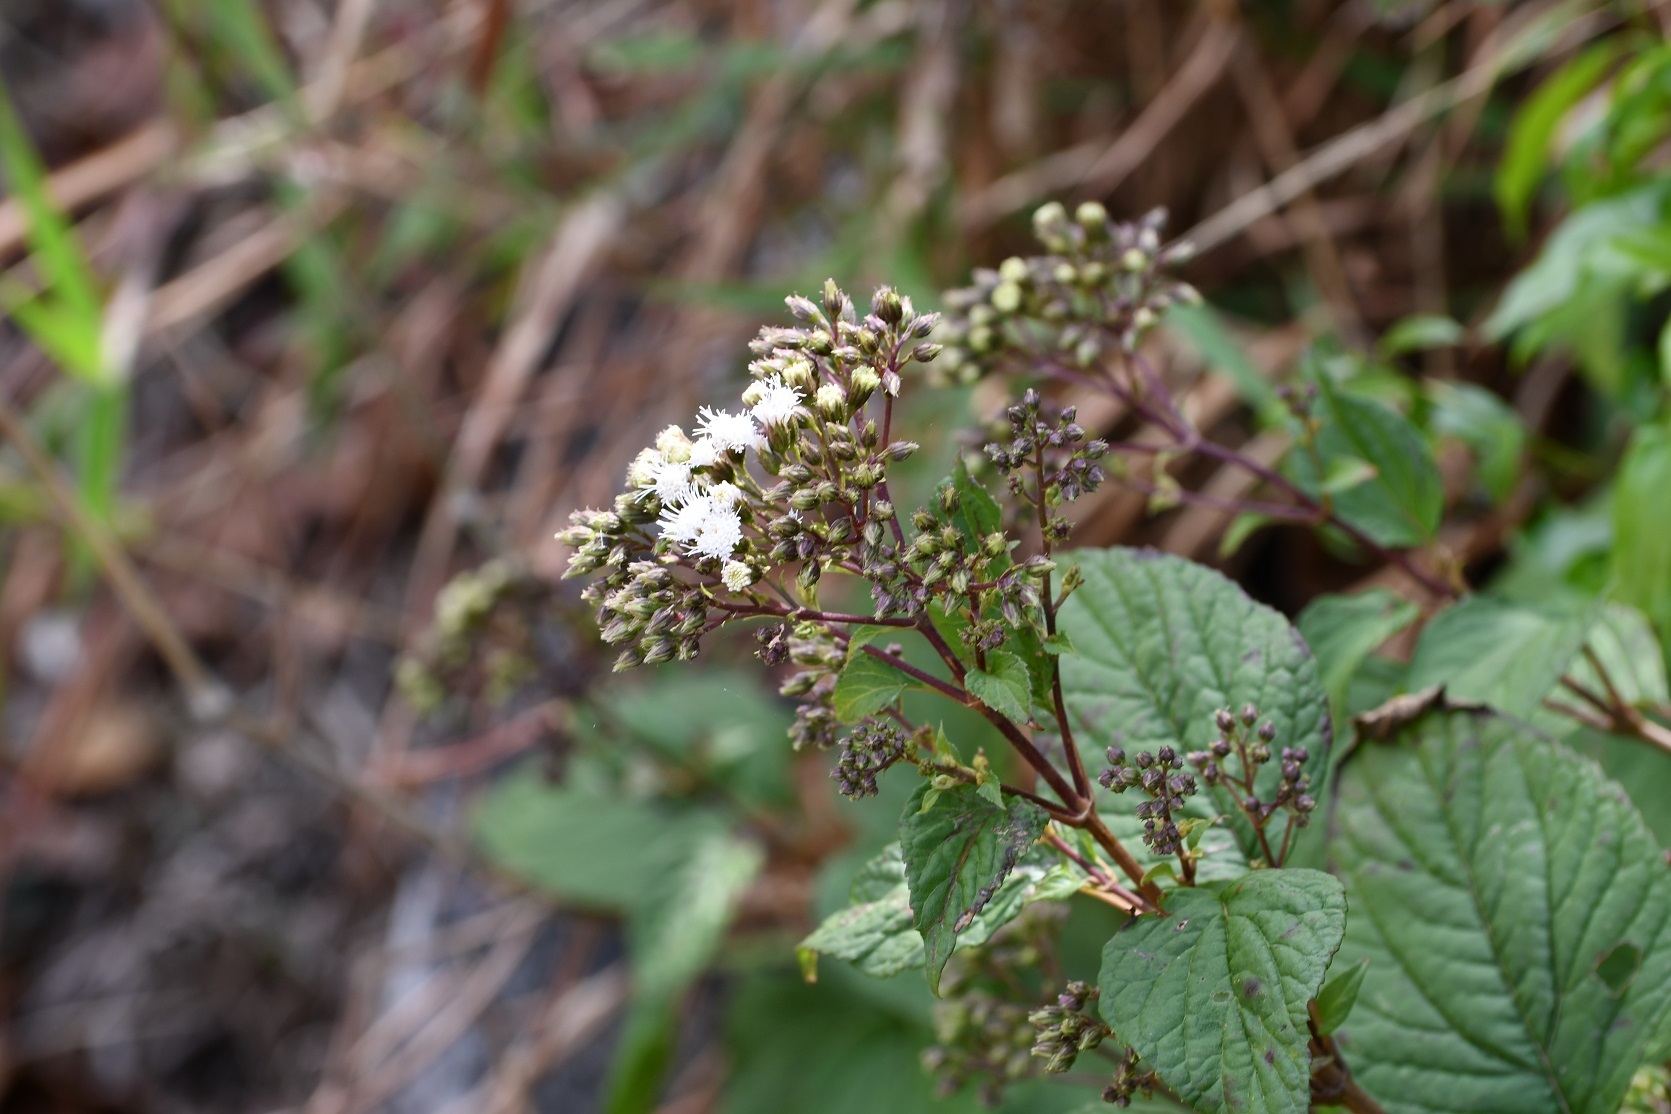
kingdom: Plantae
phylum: Tracheophyta
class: Magnoliopsida
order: Asterales
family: Asteraceae
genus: Ageratina
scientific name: Ageratina pichinchensis
